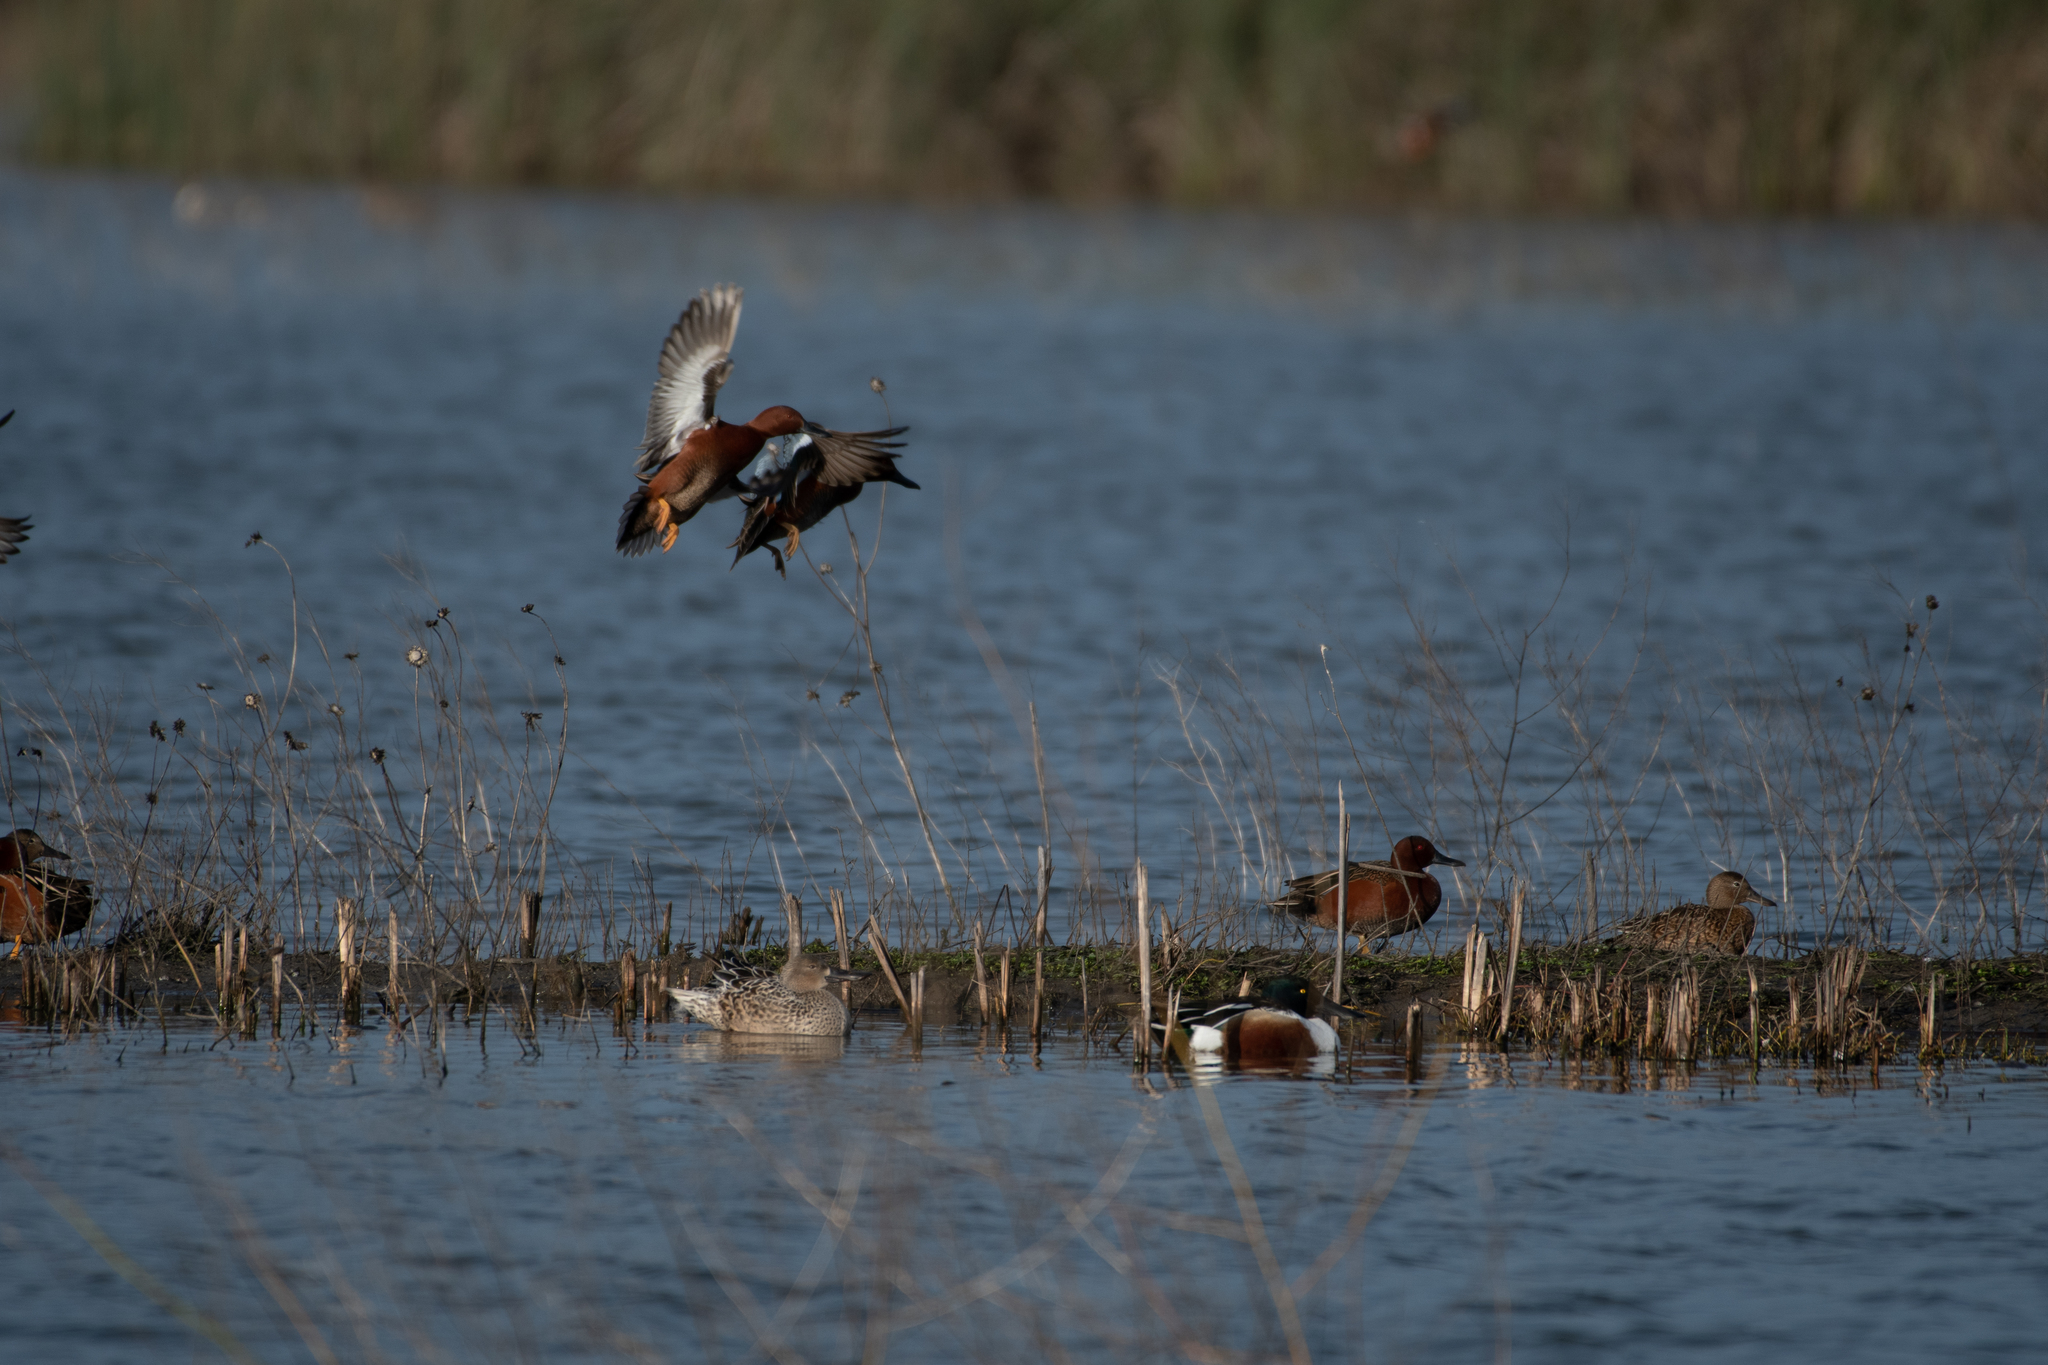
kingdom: Animalia
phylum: Chordata
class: Aves
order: Anseriformes
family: Anatidae
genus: Spatula
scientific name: Spatula cyanoptera
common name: Cinnamon teal
